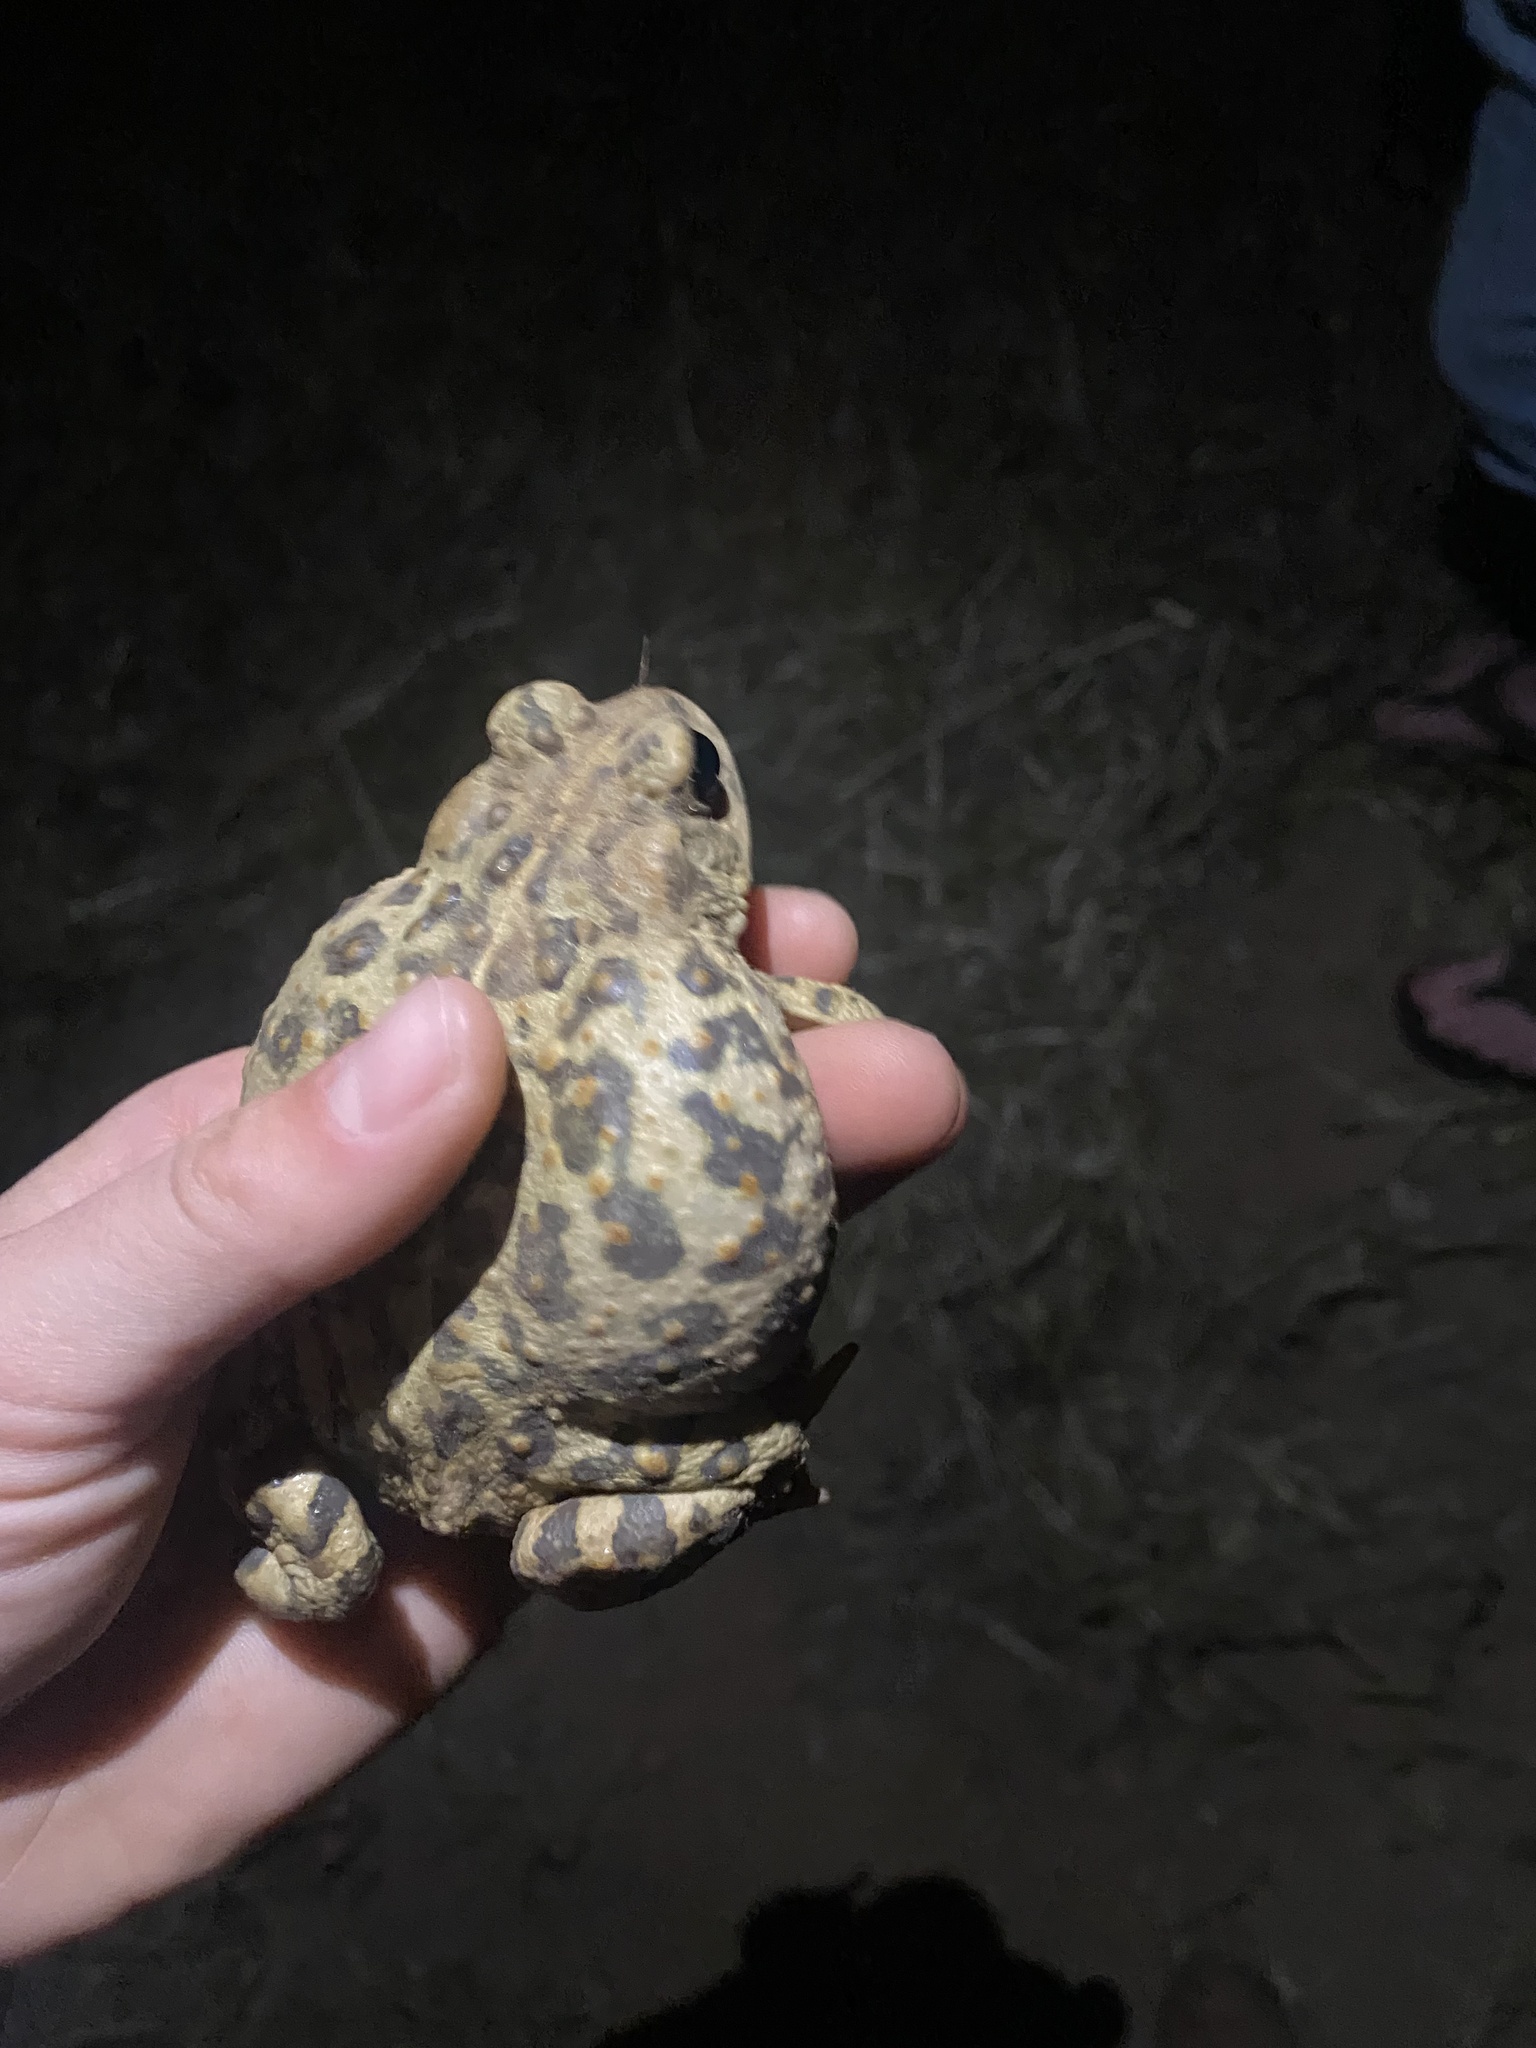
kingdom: Animalia
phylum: Chordata
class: Amphibia
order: Anura
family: Bufonidae
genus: Anaxyrus
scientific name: Anaxyrus boreas
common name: Western toad
